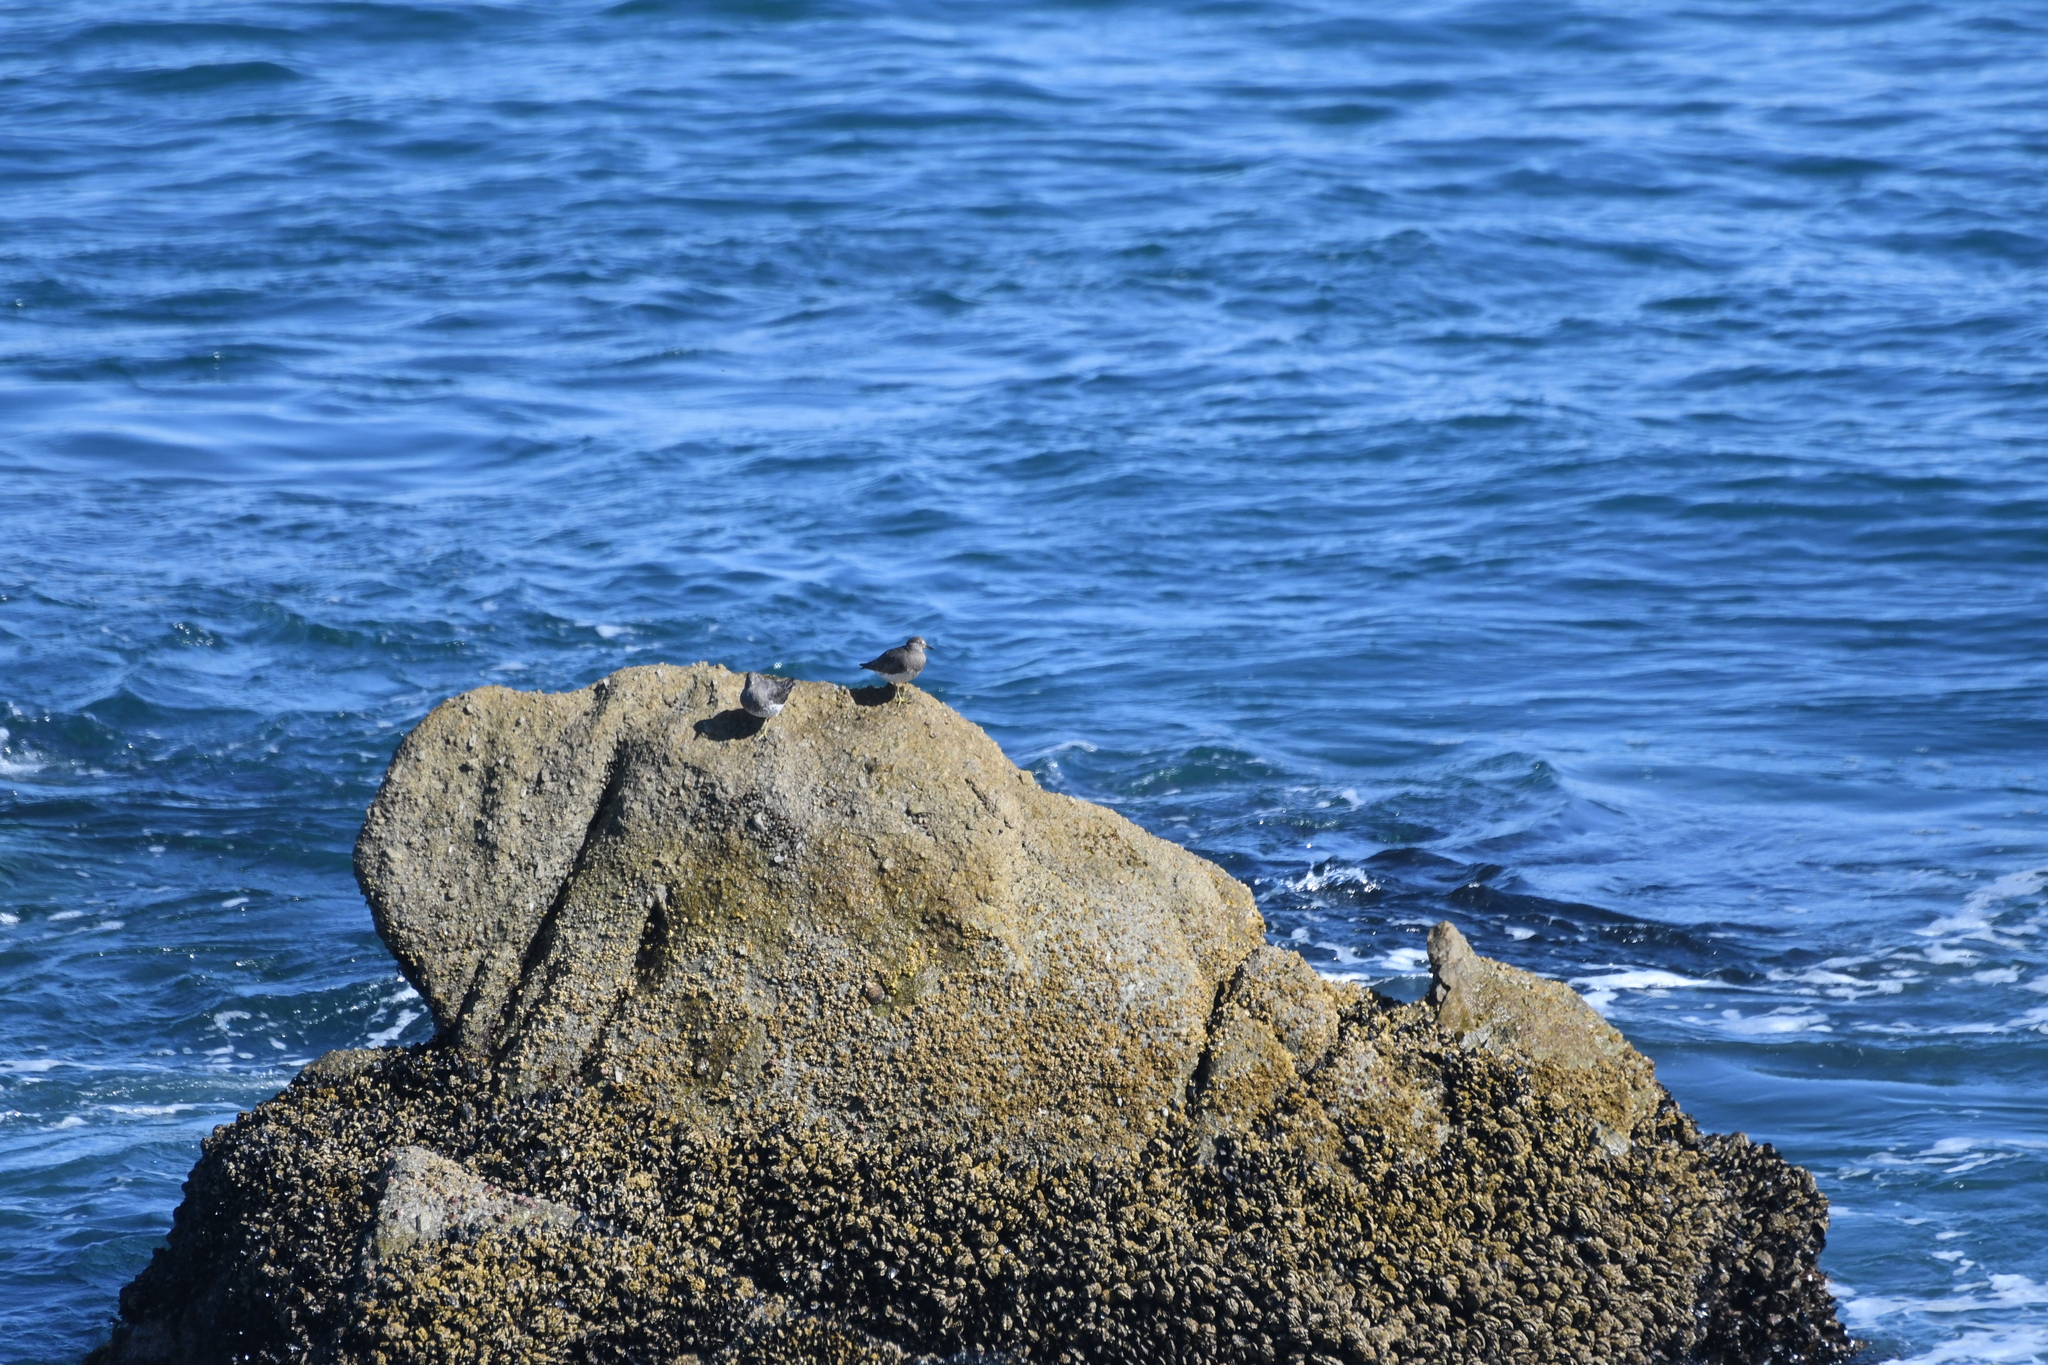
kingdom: Animalia
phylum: Chordata
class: Aves
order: Charadriiformes
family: Scolopacidae
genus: Calidris
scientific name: Calidris virgata
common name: Surfbird
